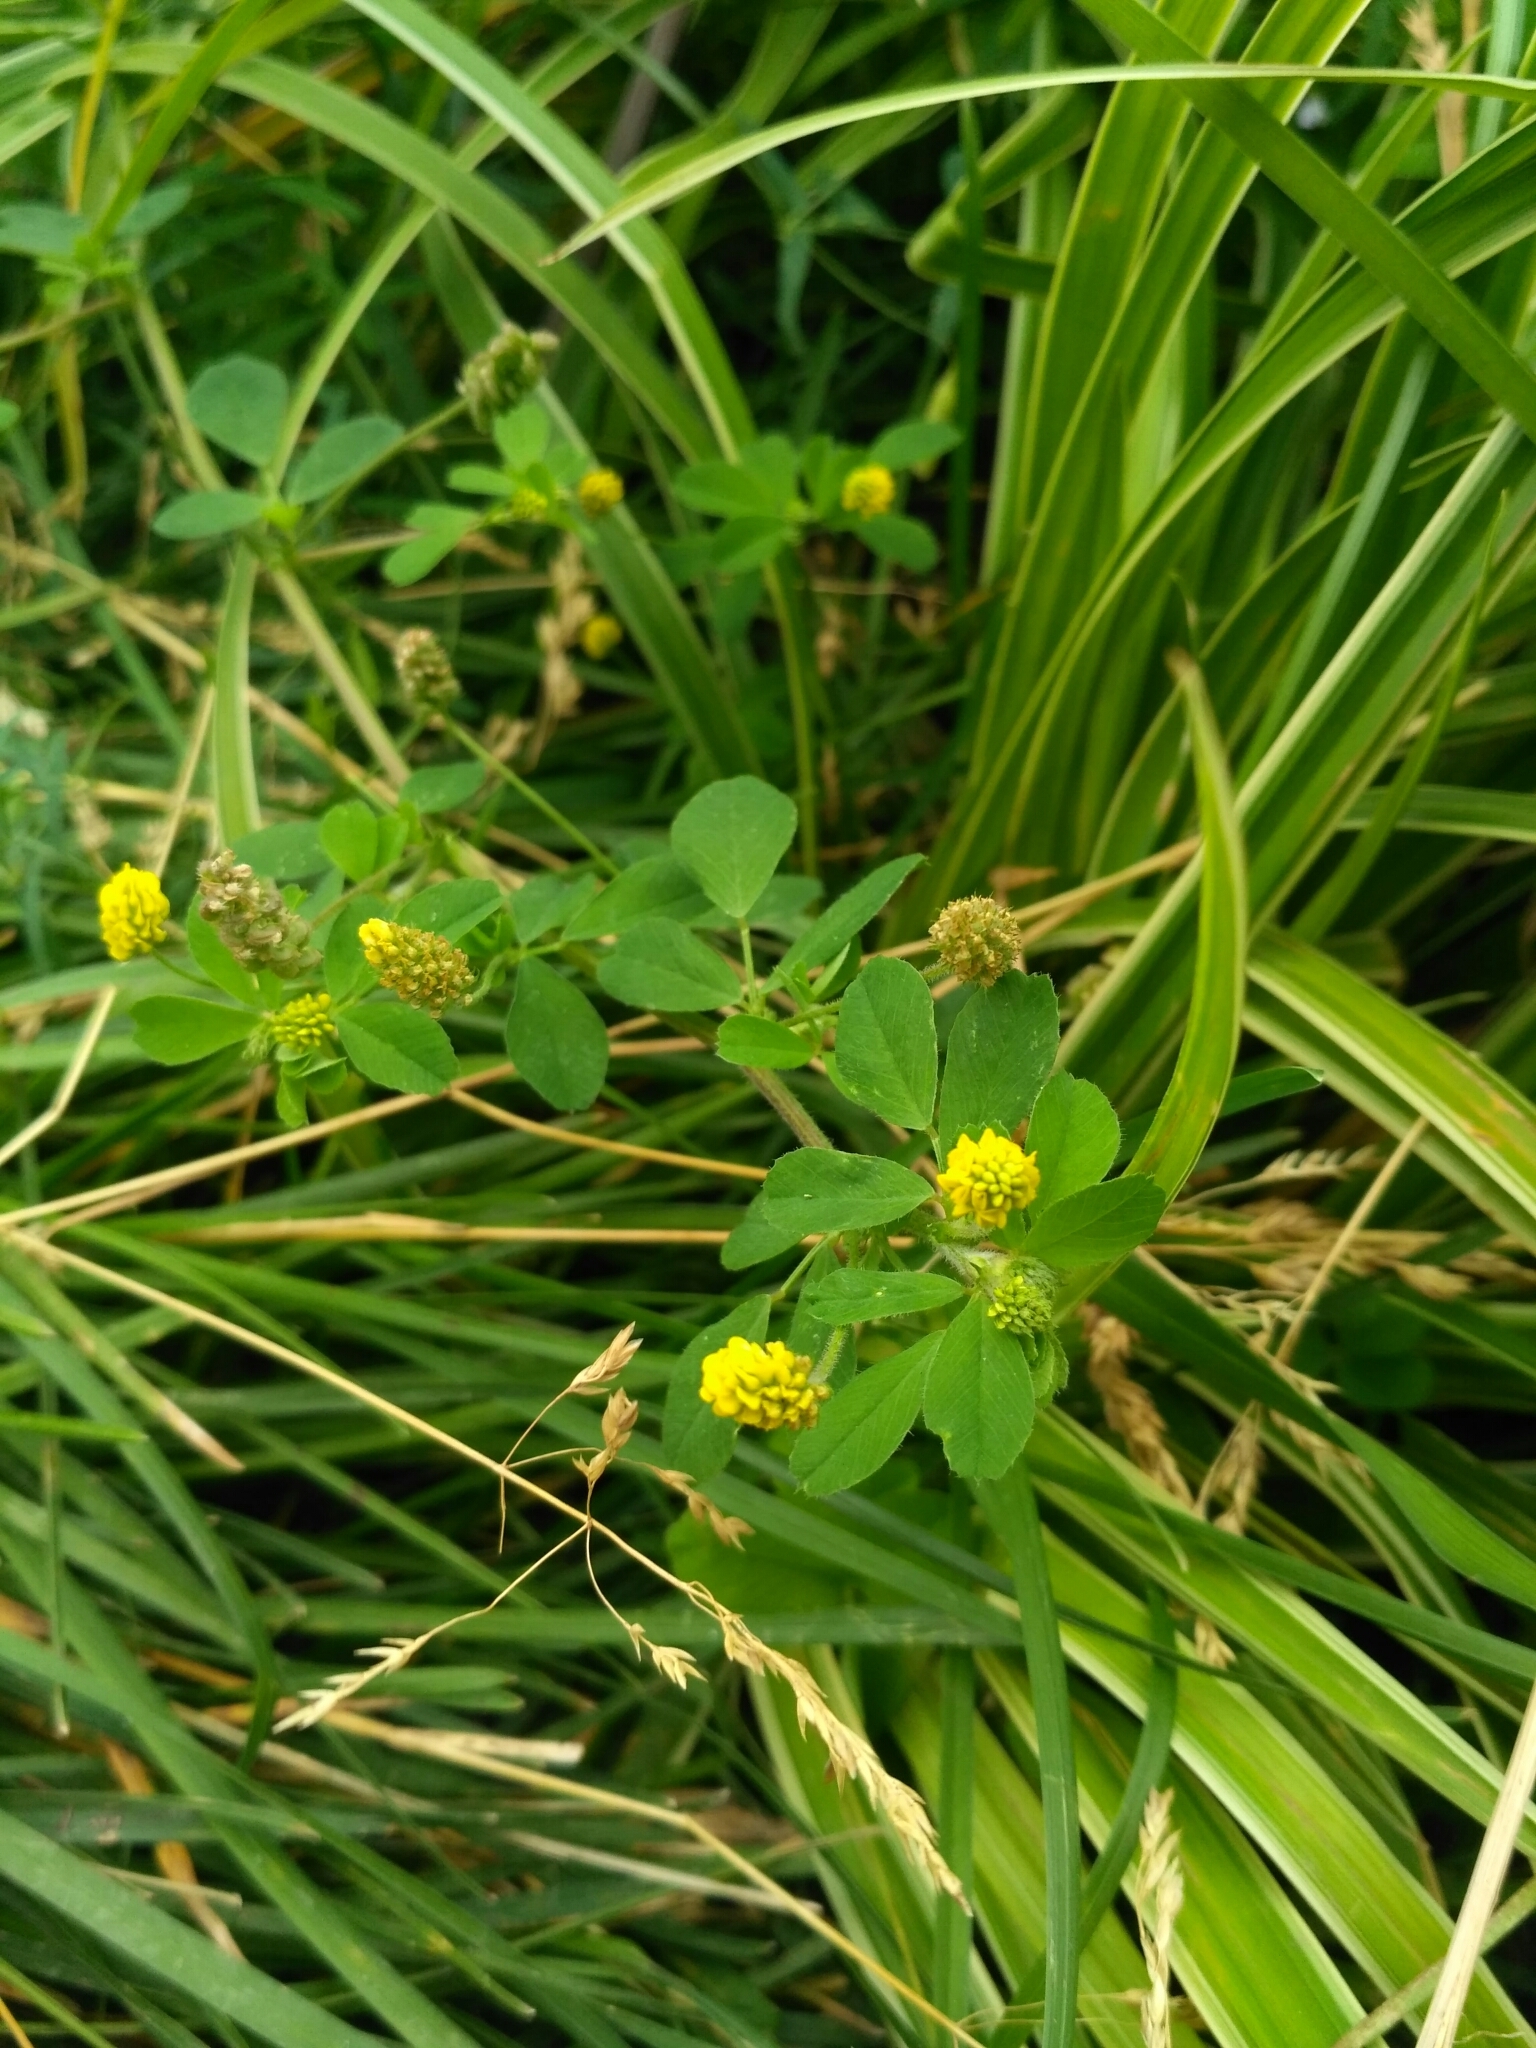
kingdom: Plantae
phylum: Tracheophyta
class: Magnoliopsida
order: Fabales
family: Fabaceae
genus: Medicago
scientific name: Medicago lupulina
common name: Black medick
